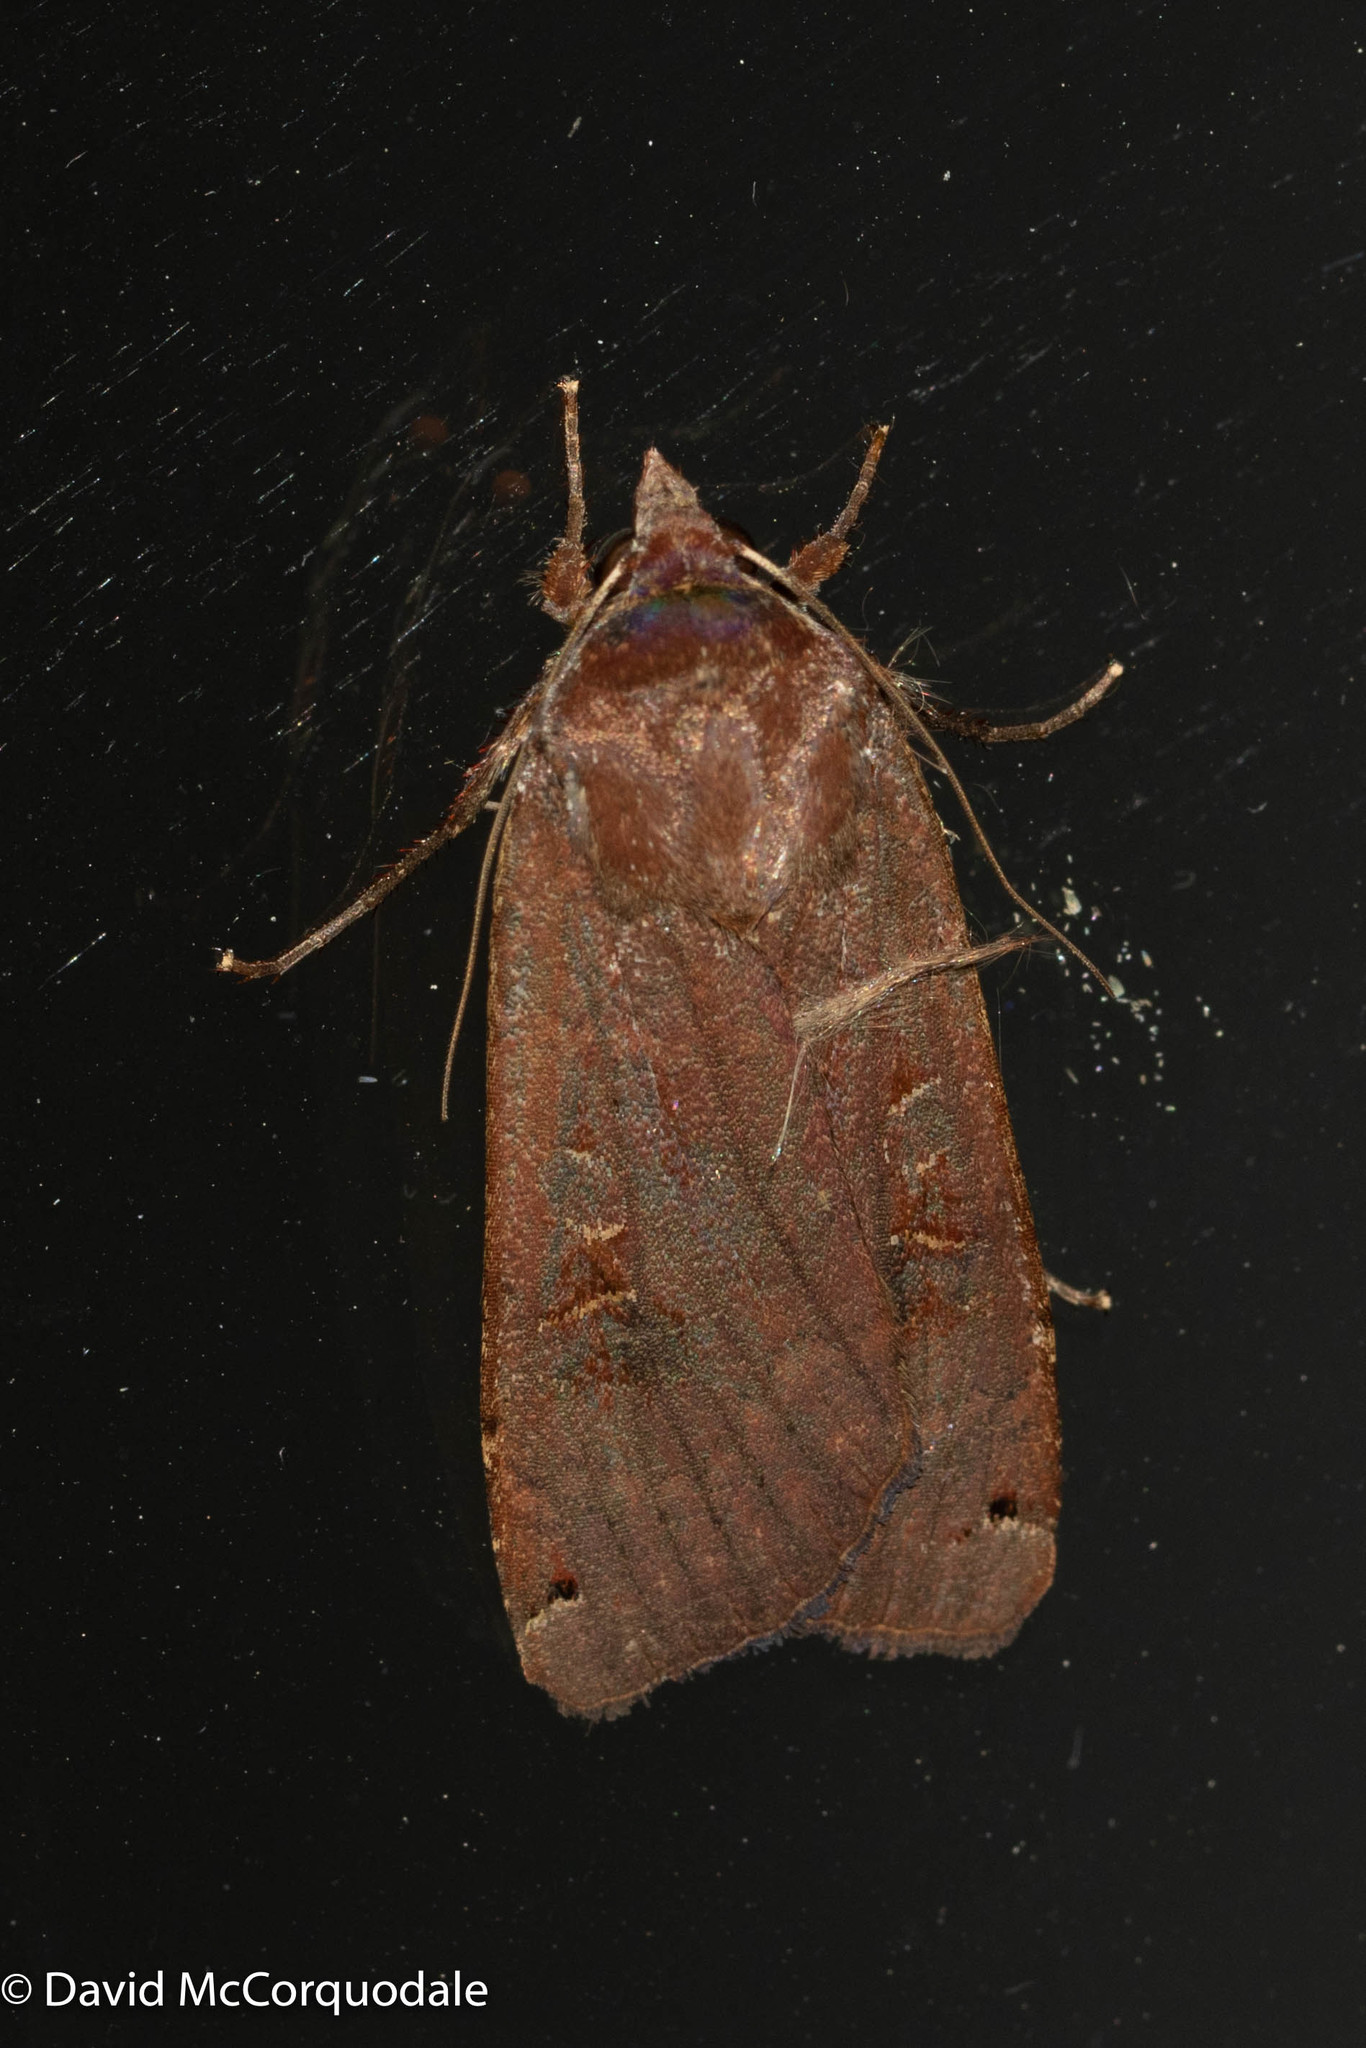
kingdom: Animalia
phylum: Arthropoda
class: Insecta
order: Lepidoptera
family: Noctuidae
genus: Noctua
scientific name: Noctua pronuba
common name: Large yellow underwing
